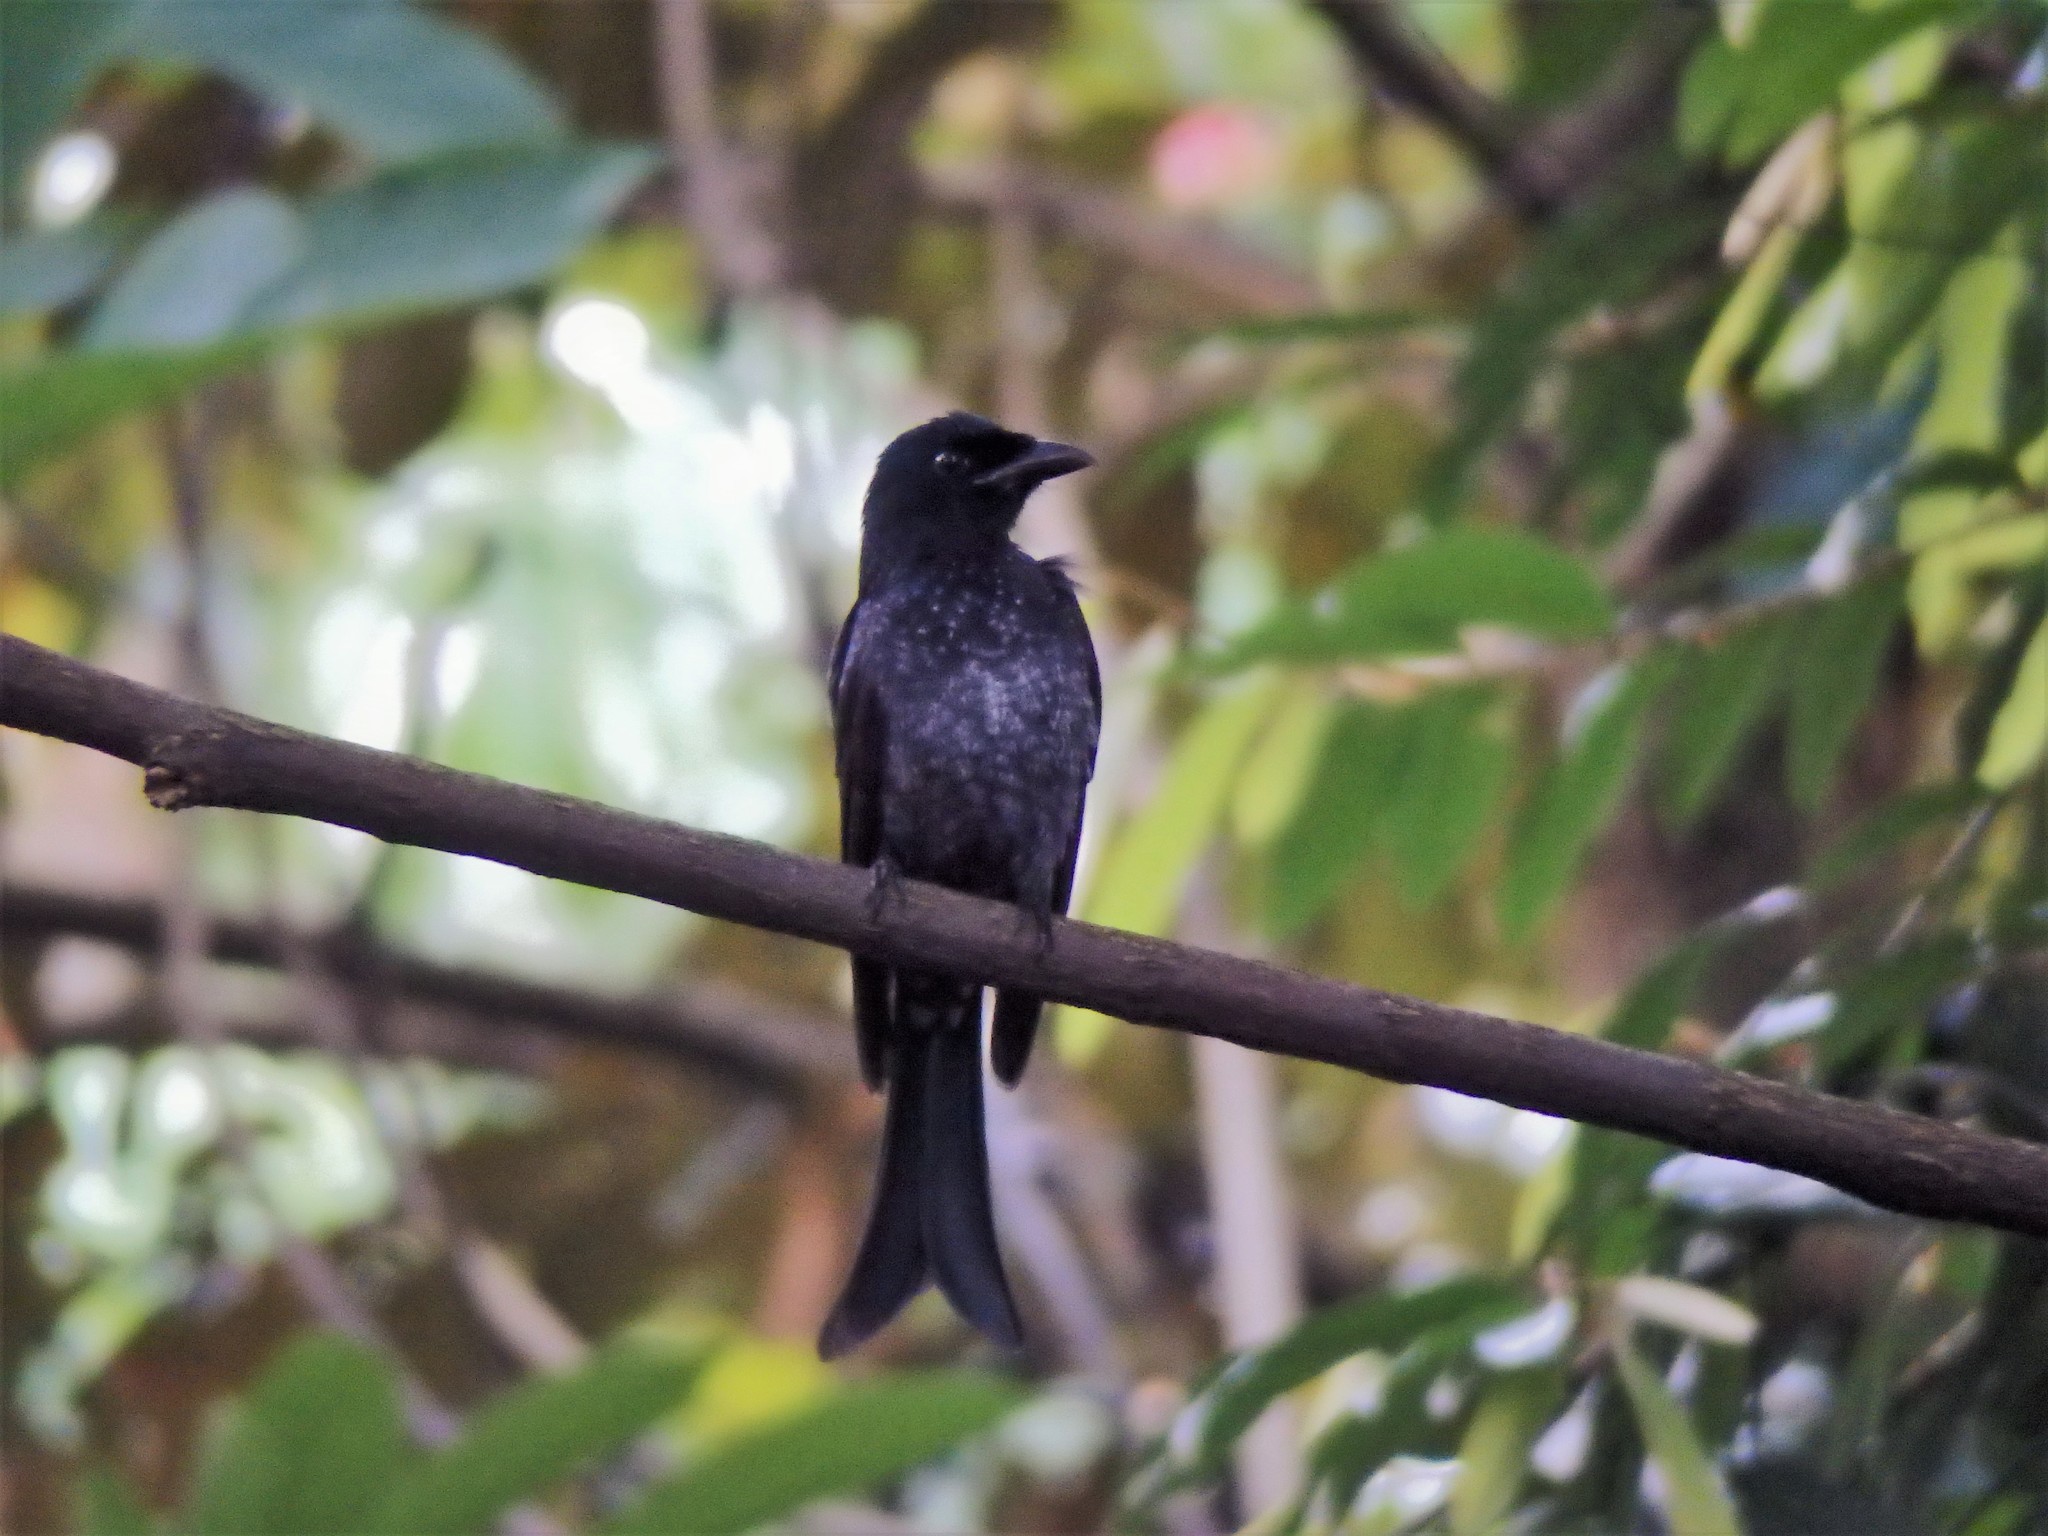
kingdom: Animalia
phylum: Chordata
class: Aves
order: Passeriformes
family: Dicruridae
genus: Dicrurus
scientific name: Dicrurus annectens
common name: Crow-billed drongo
